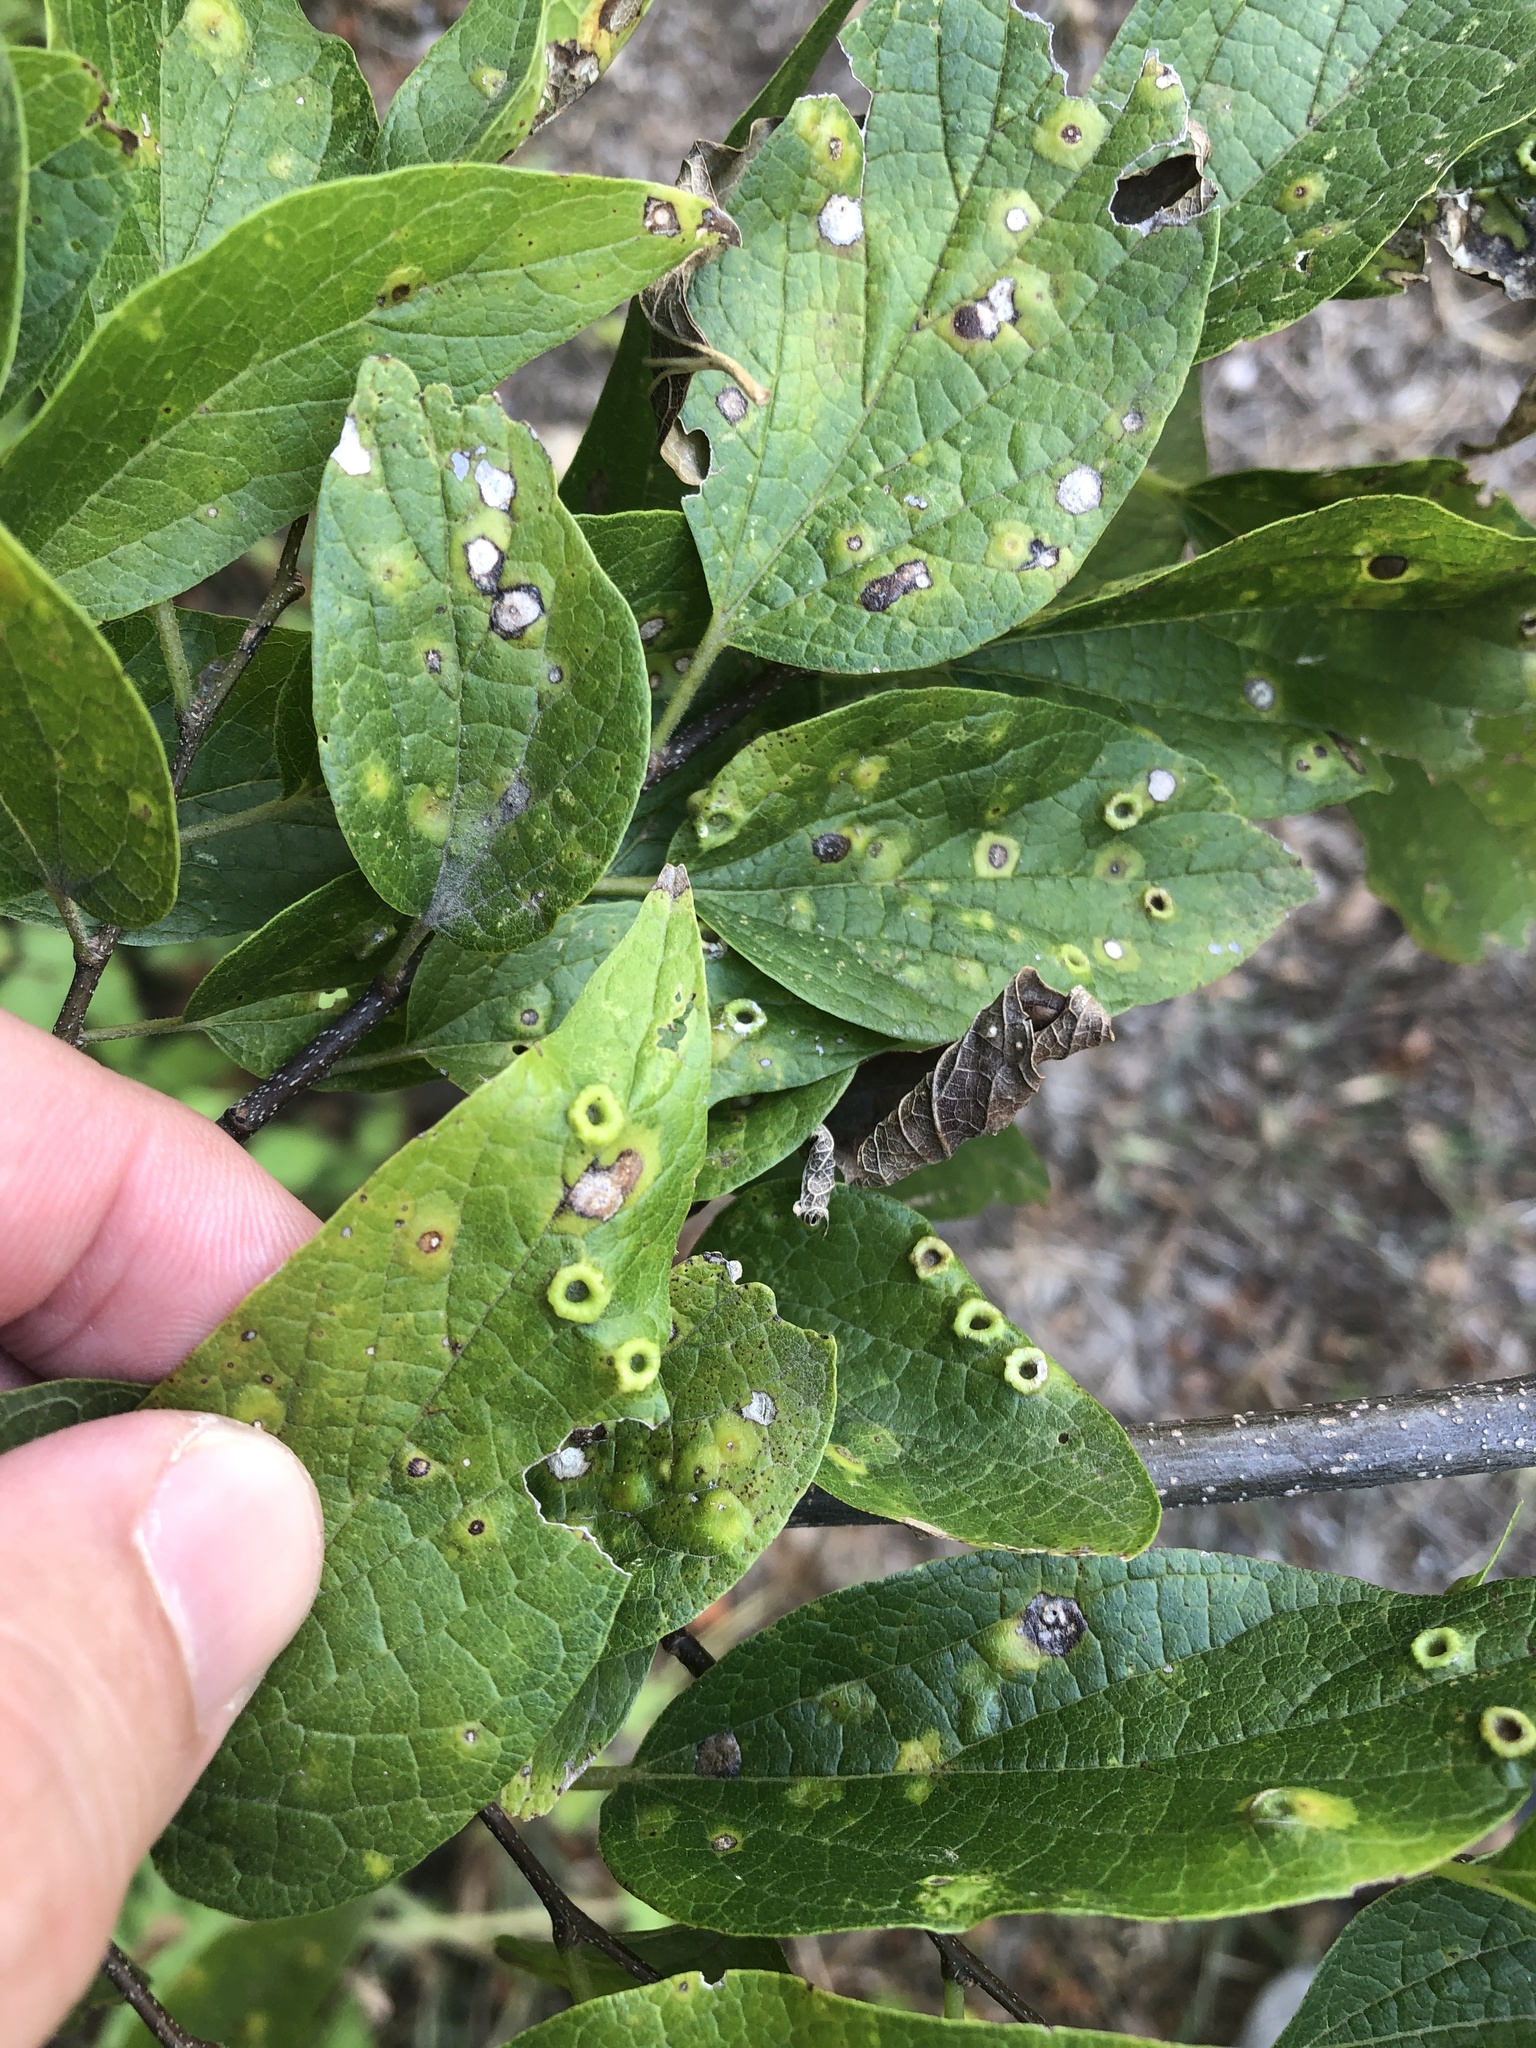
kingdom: Animalia
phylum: Arthropoda
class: Insecta
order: Hemiptera
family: Aphalaridae
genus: Pachypsylla
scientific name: Pachypsylla celtidismamma
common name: Hackberry nipplegall psyllid
